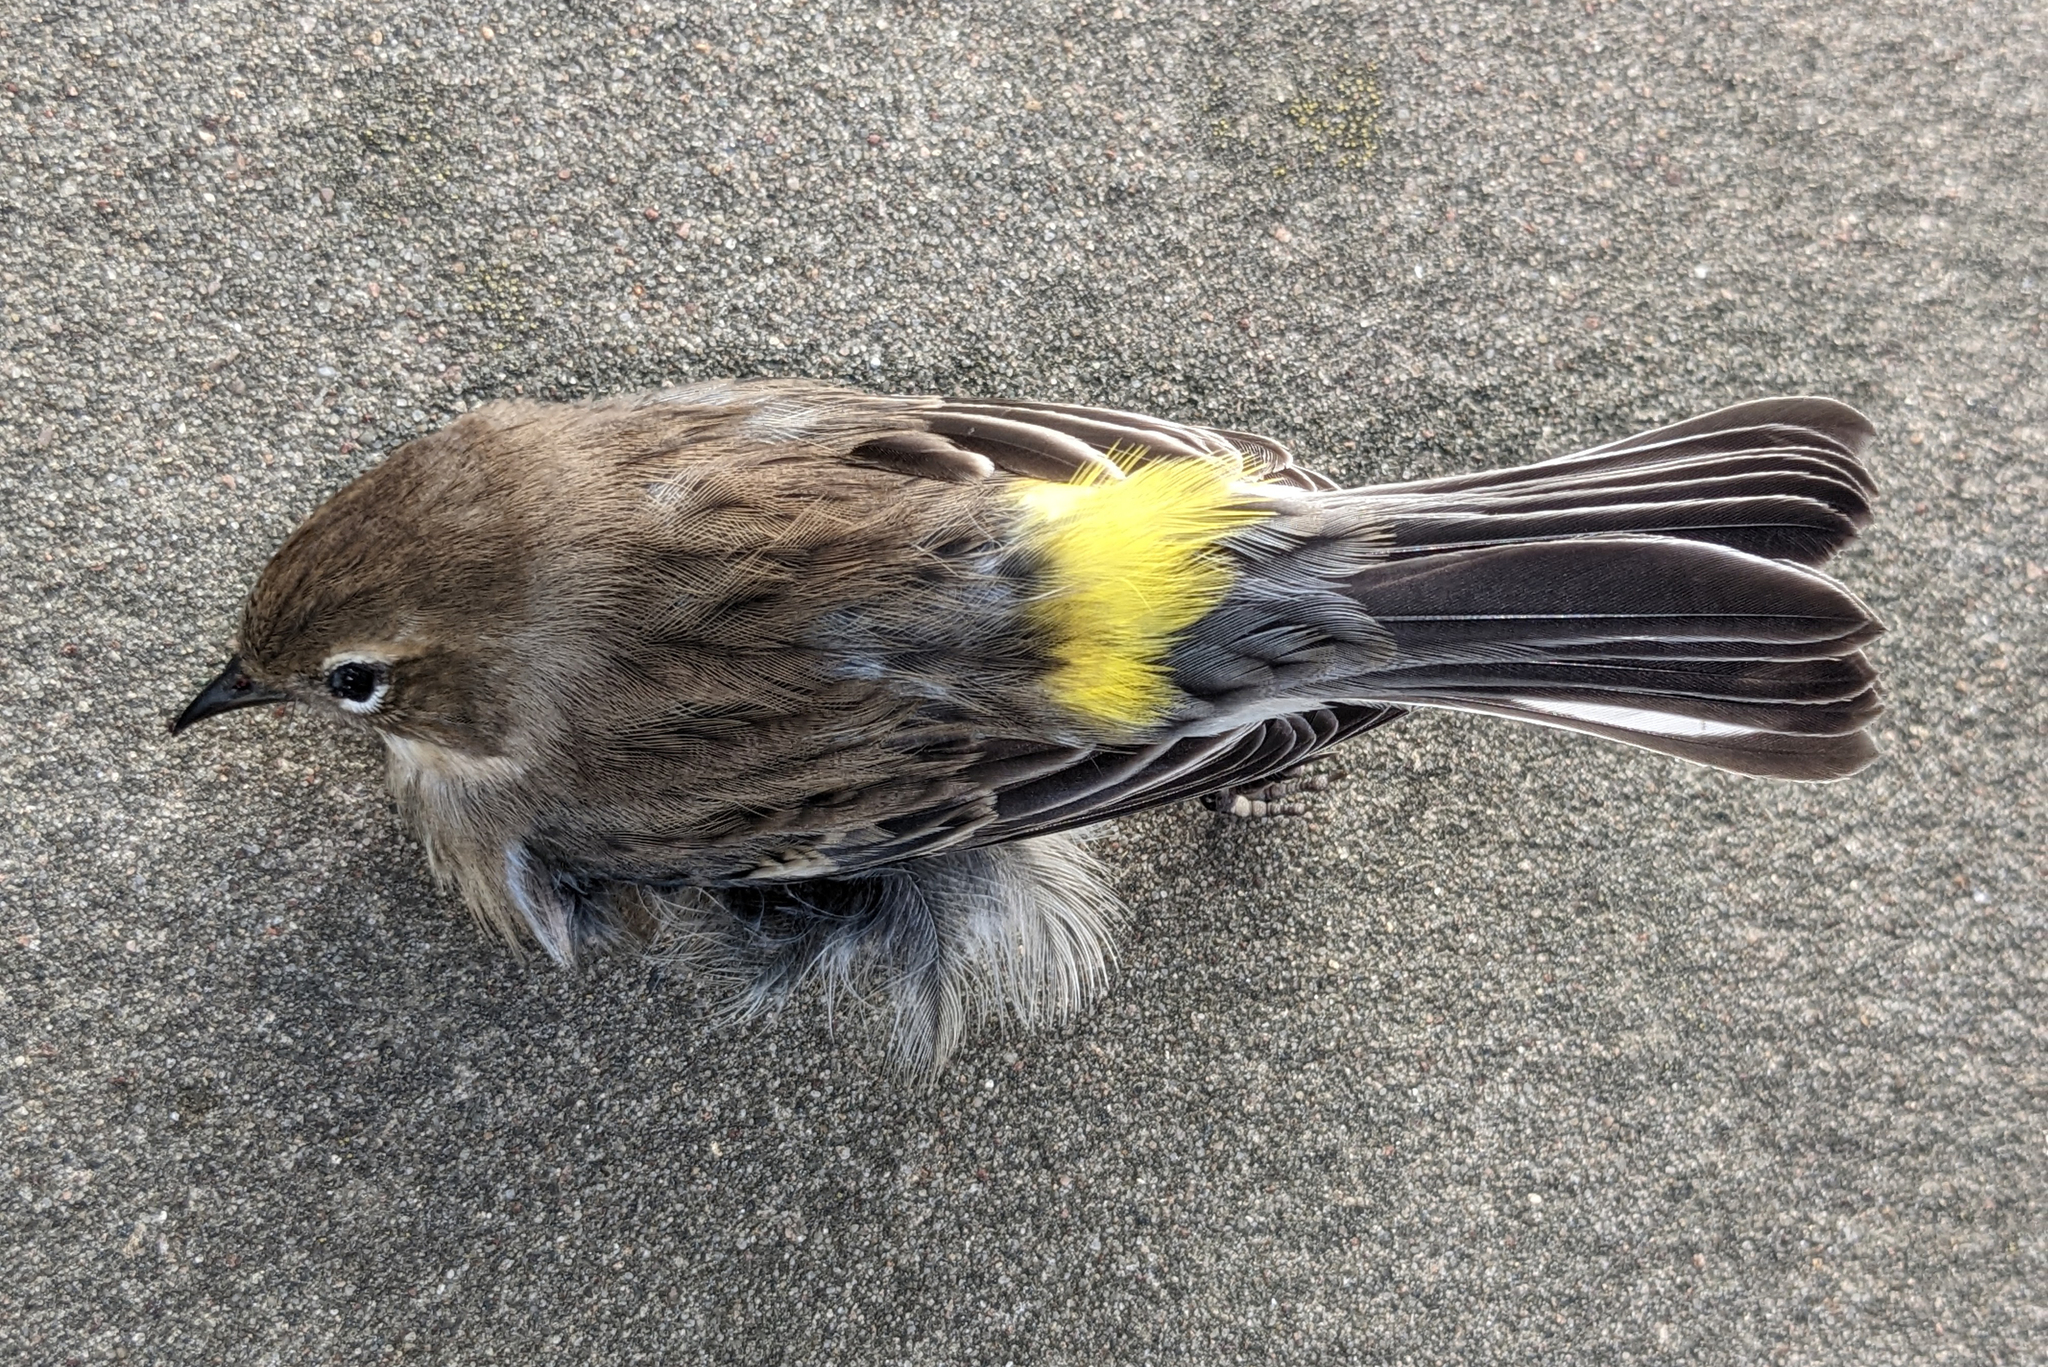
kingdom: Animalia
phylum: Chordata
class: Aves
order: Passeriformes
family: Parulidae
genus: Setophaga
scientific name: Setophaga coronata
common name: Myrtle warbler
